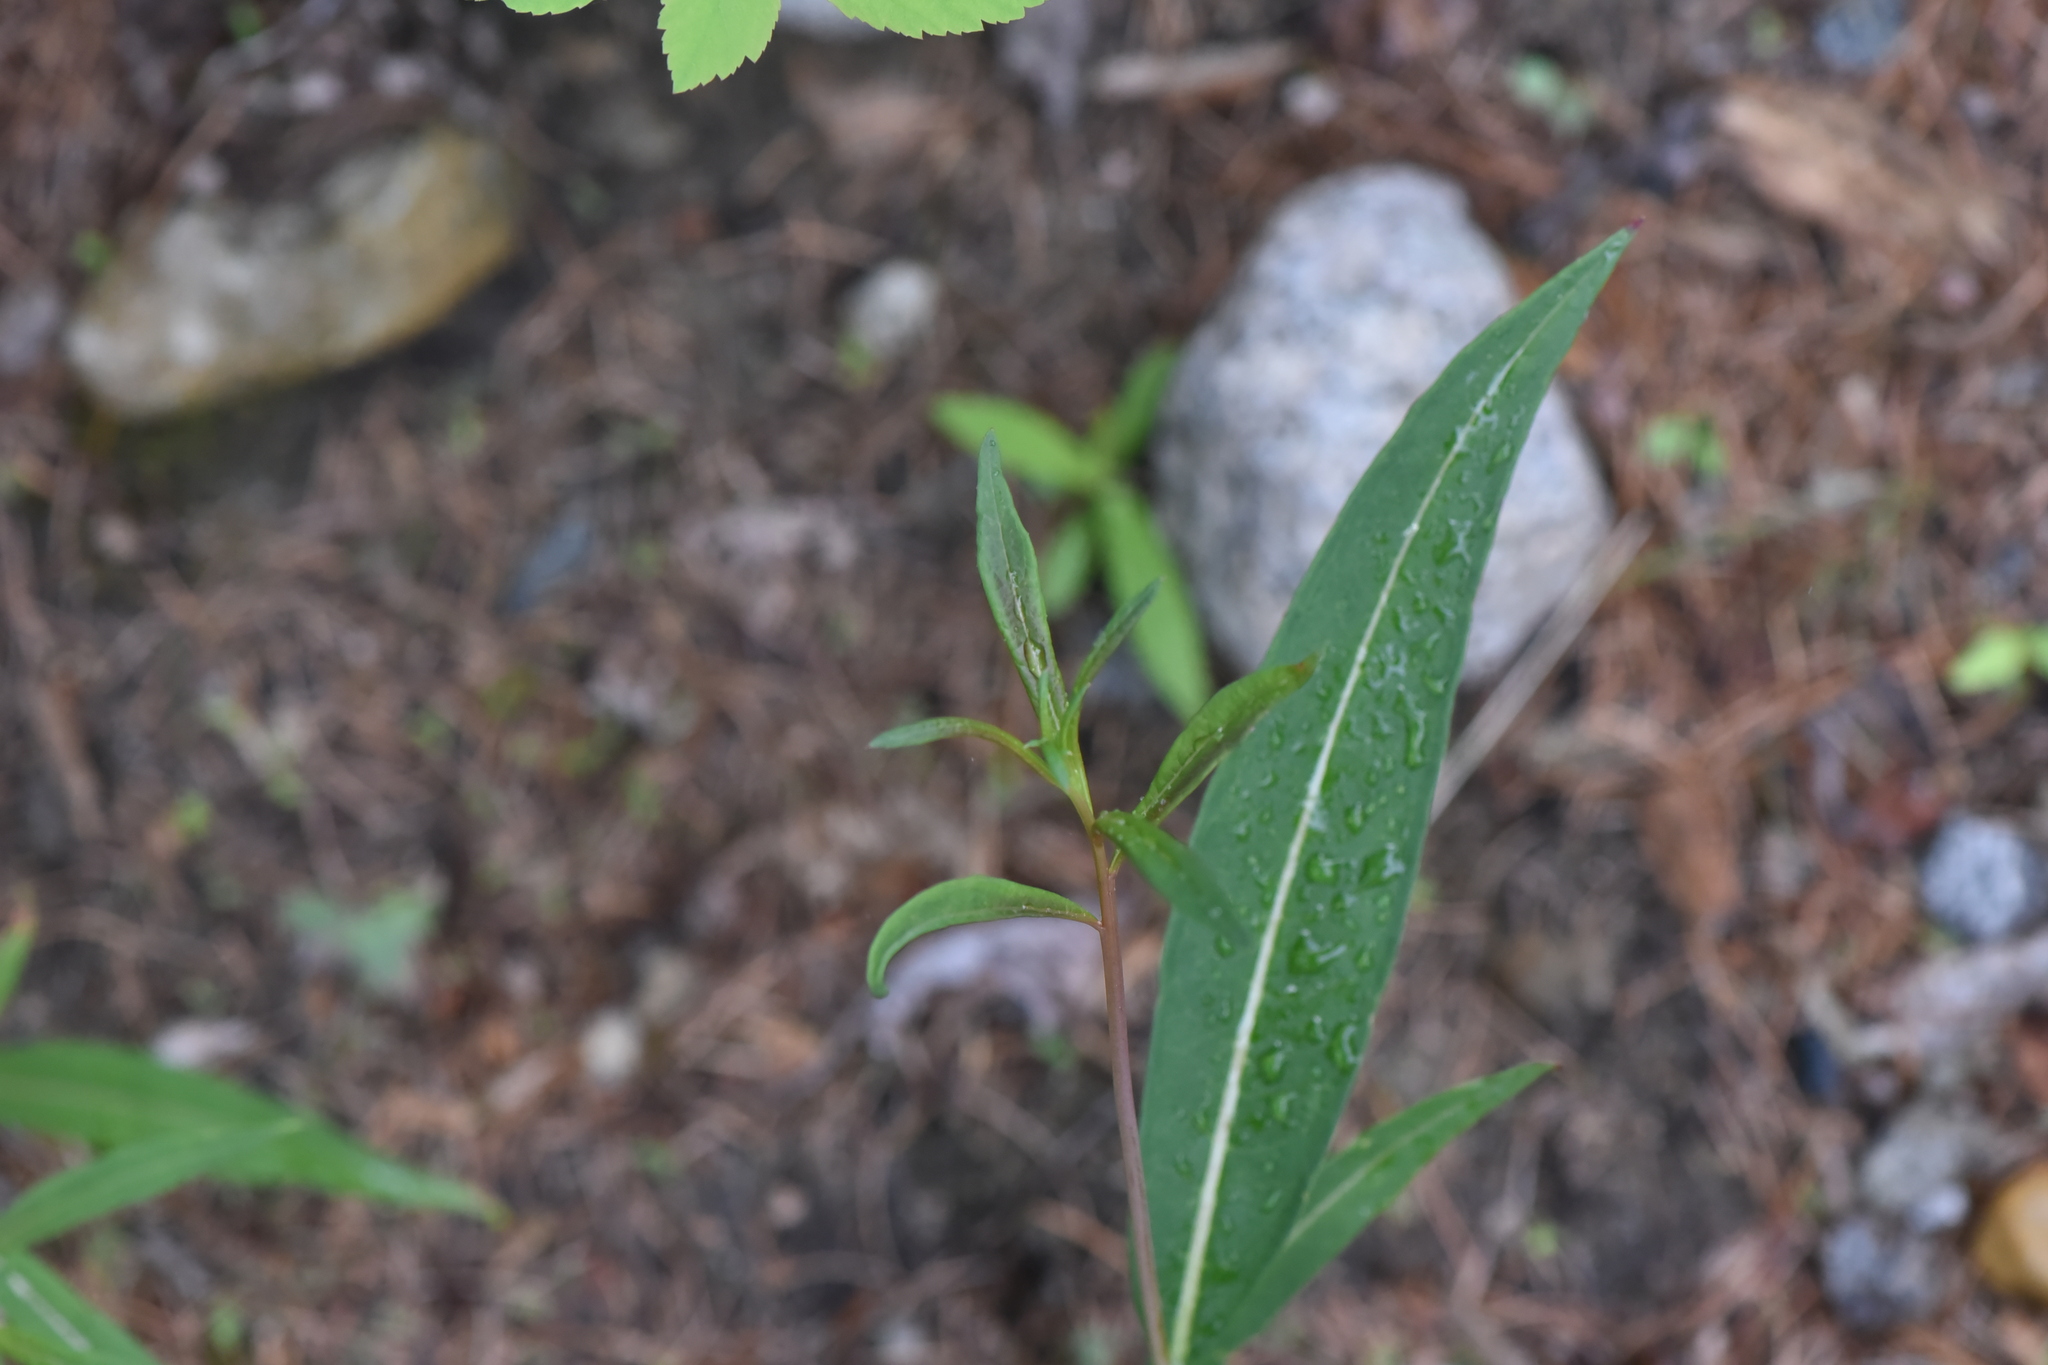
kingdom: Plantae
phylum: Tracheophyta
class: Magnoliopsida
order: Myrtales
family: Onagraceae
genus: Chamaenerion
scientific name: Chamaenerion angustifolium
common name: Fireweed
